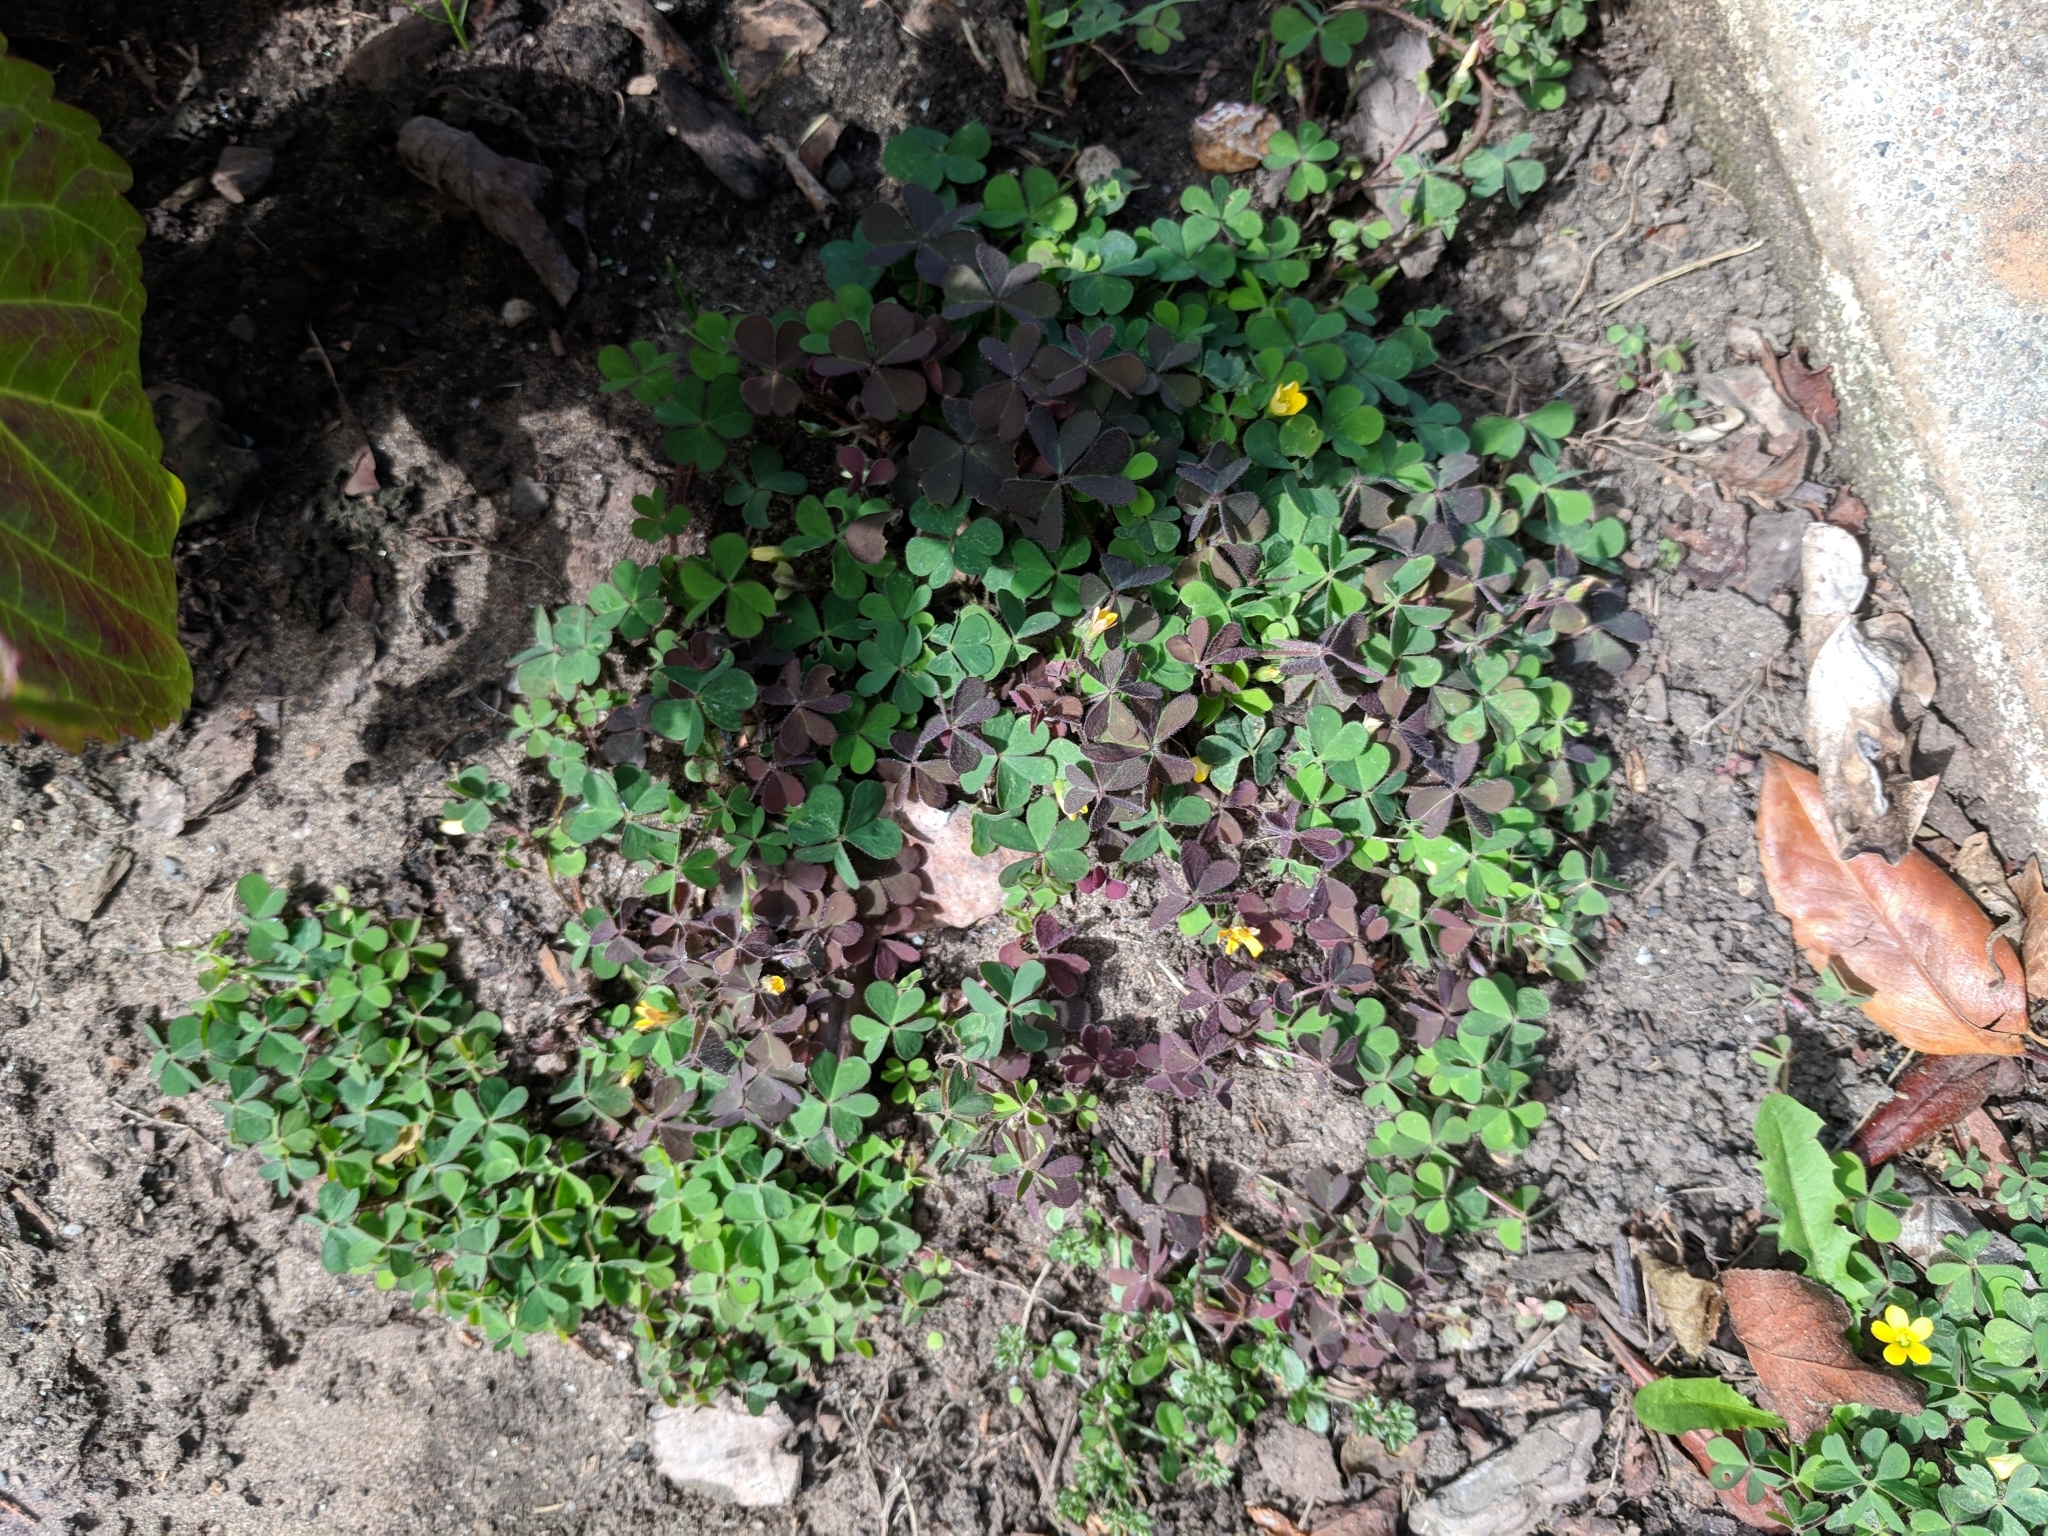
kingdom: Plantae
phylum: Tracheophyta
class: Magnoliopsida
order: Oxalidales
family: Oxalidaceae
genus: Oxalis
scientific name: Oxalis corniculata
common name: Procumbent yellow-sorrel
